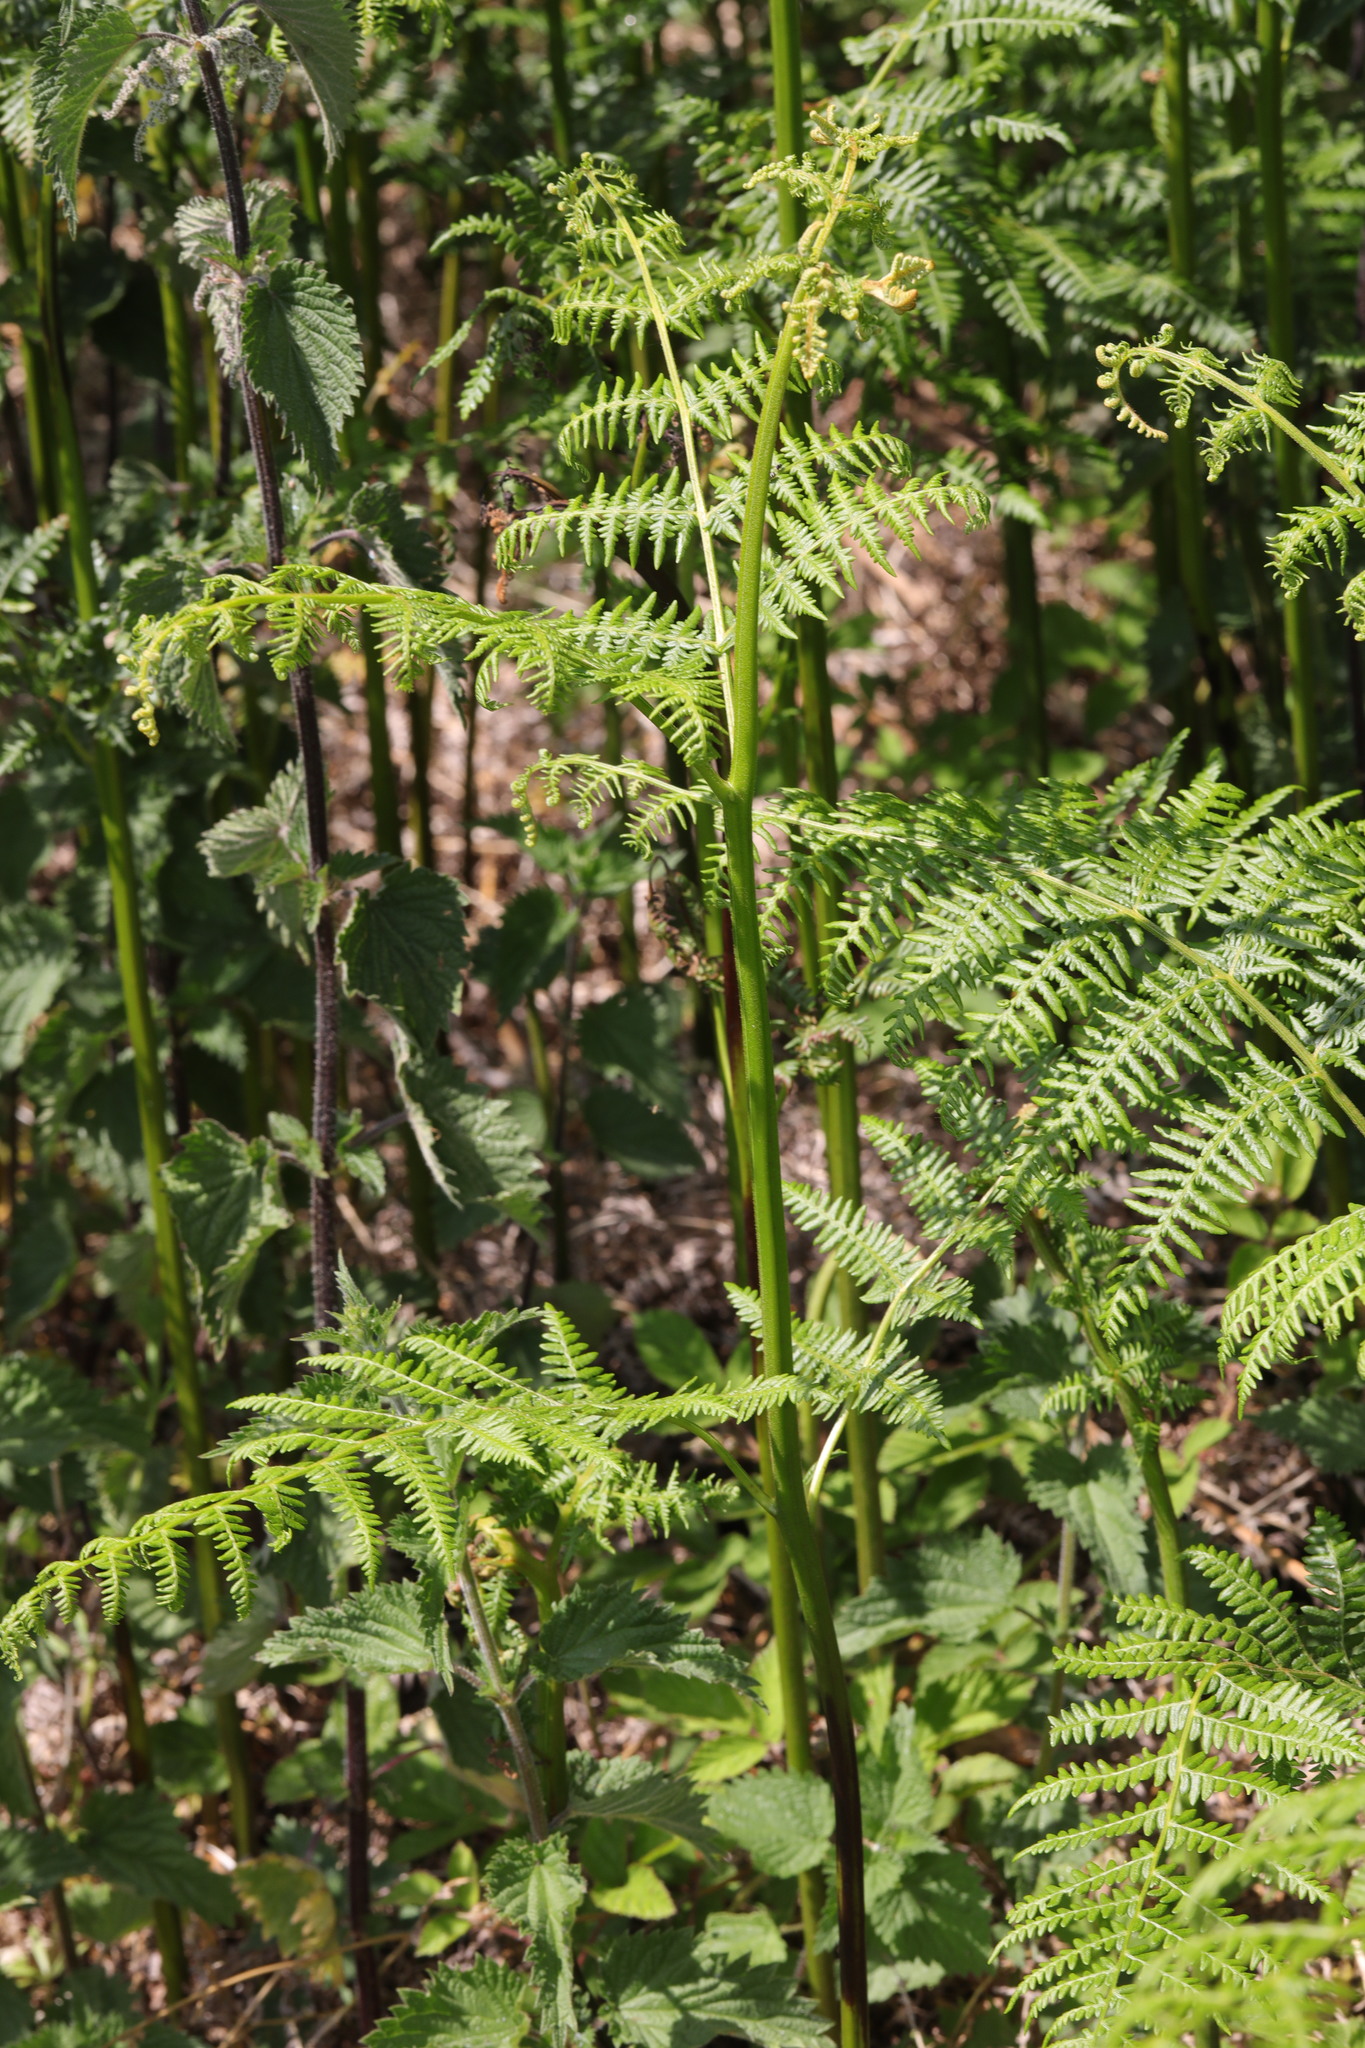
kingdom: Plantae
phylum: Tracheophyta
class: Polypodiopsida
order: Polypodiales
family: Dennstaedtiaceae
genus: Pteridium
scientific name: Pteridium aquilinum
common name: Bracken
